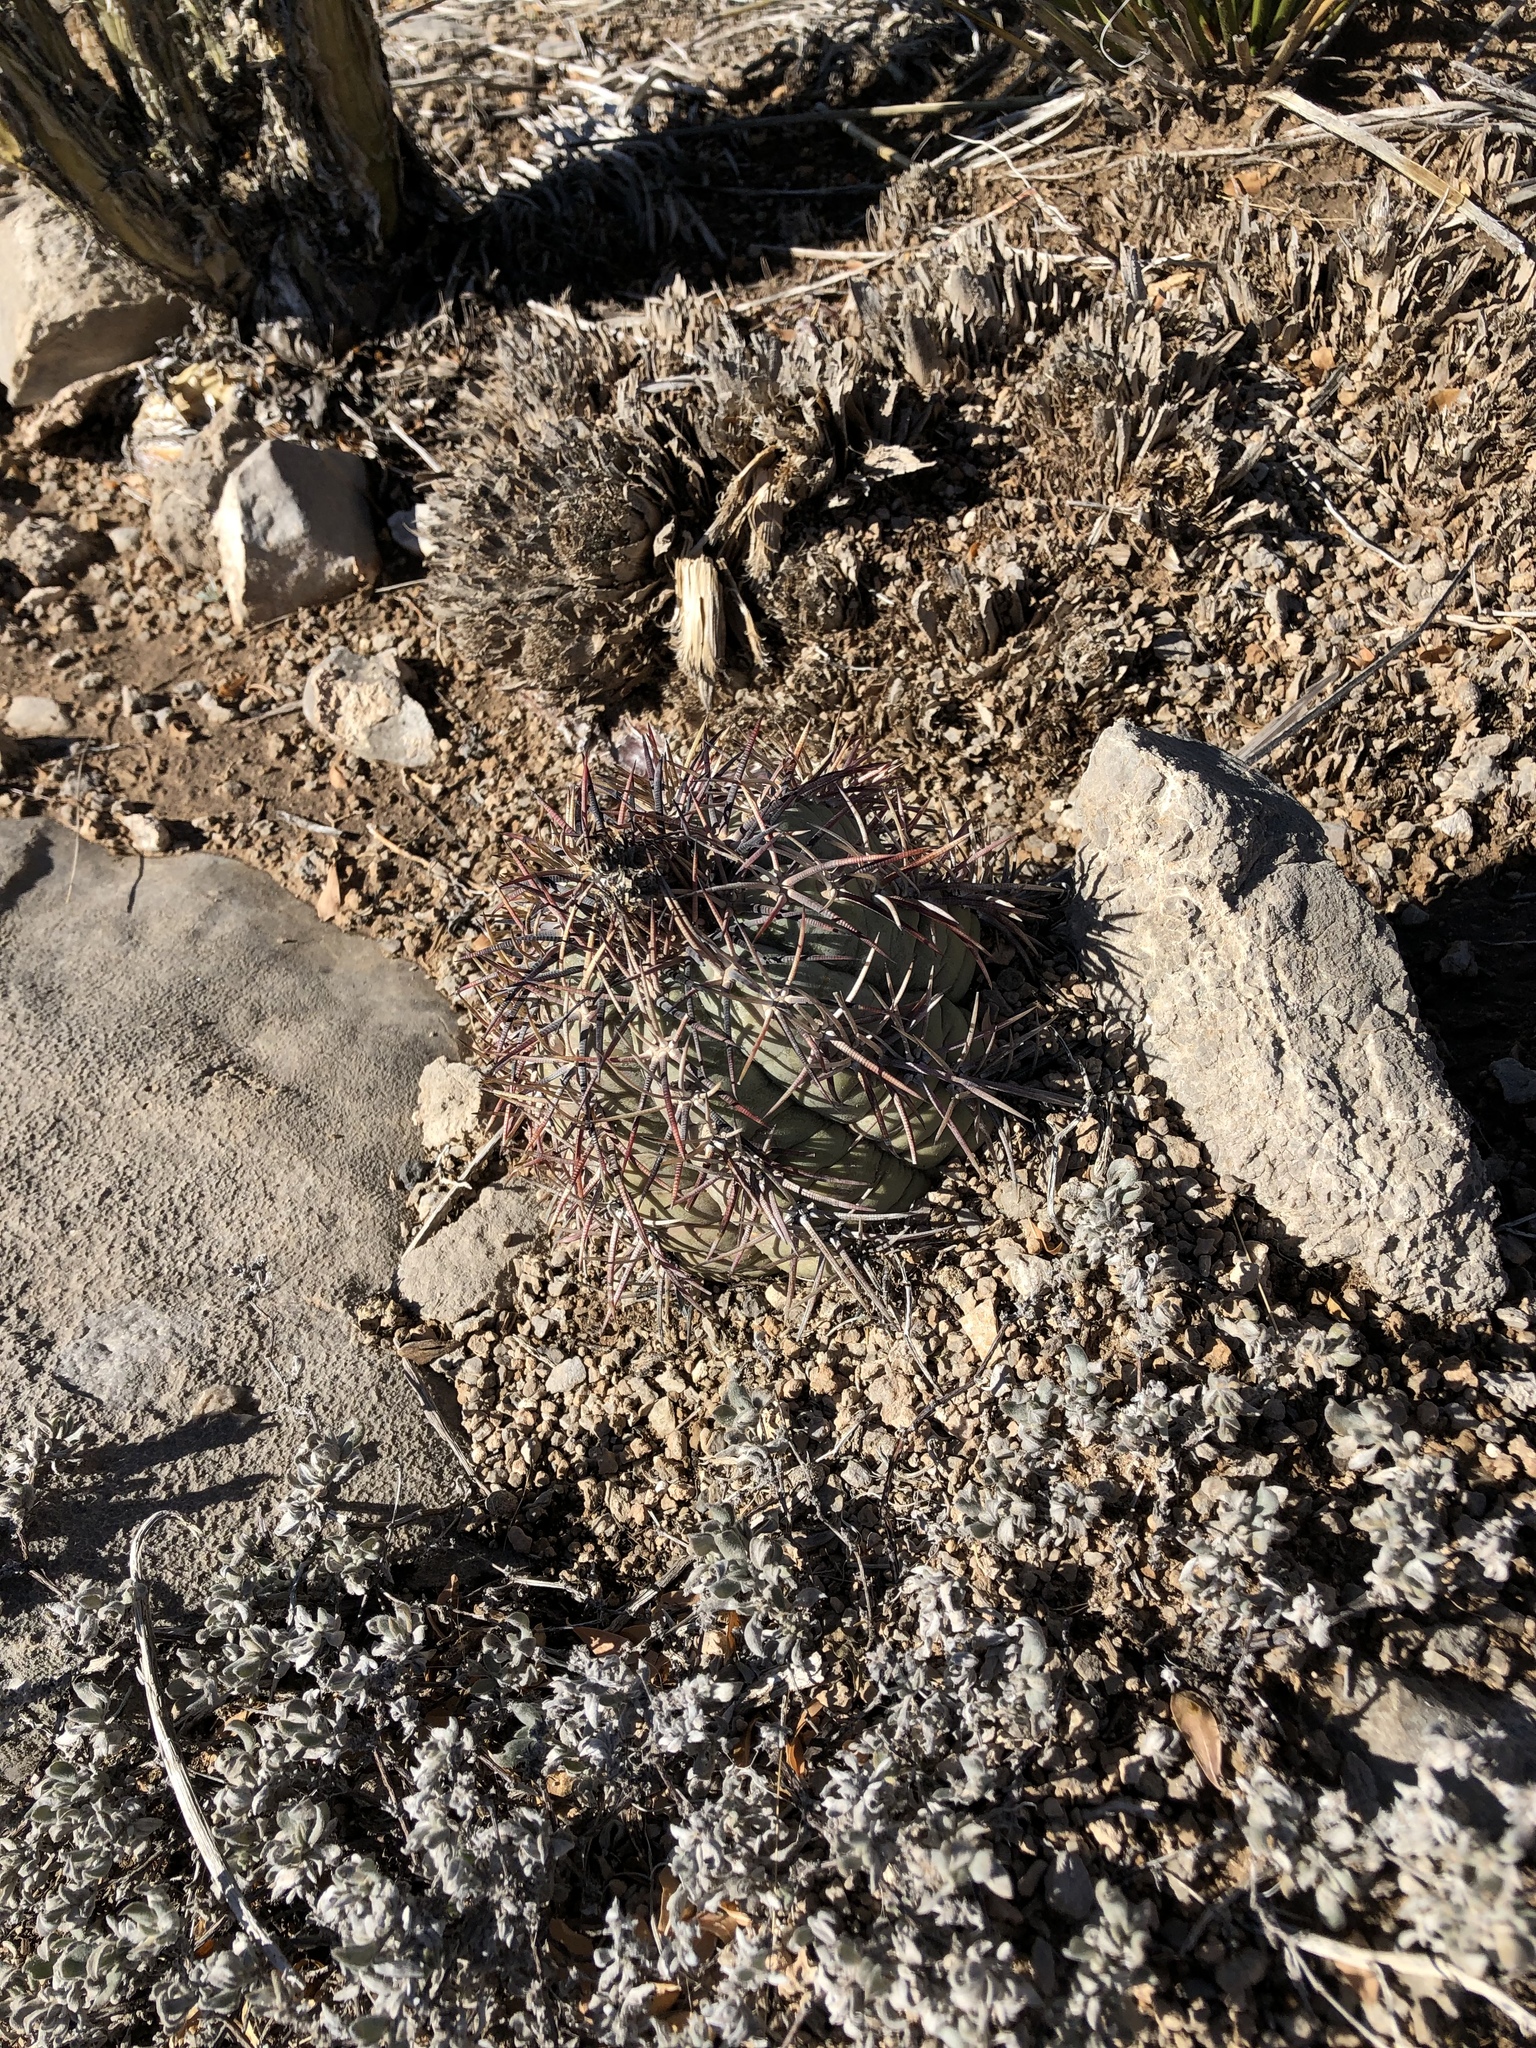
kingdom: Plantae
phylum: Tracheophyta
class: Magnoliopsida
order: Caryophyllales
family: Cactaceae
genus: Echinocactus
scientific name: Echinocactus horizonthalonius
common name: Devilshead
